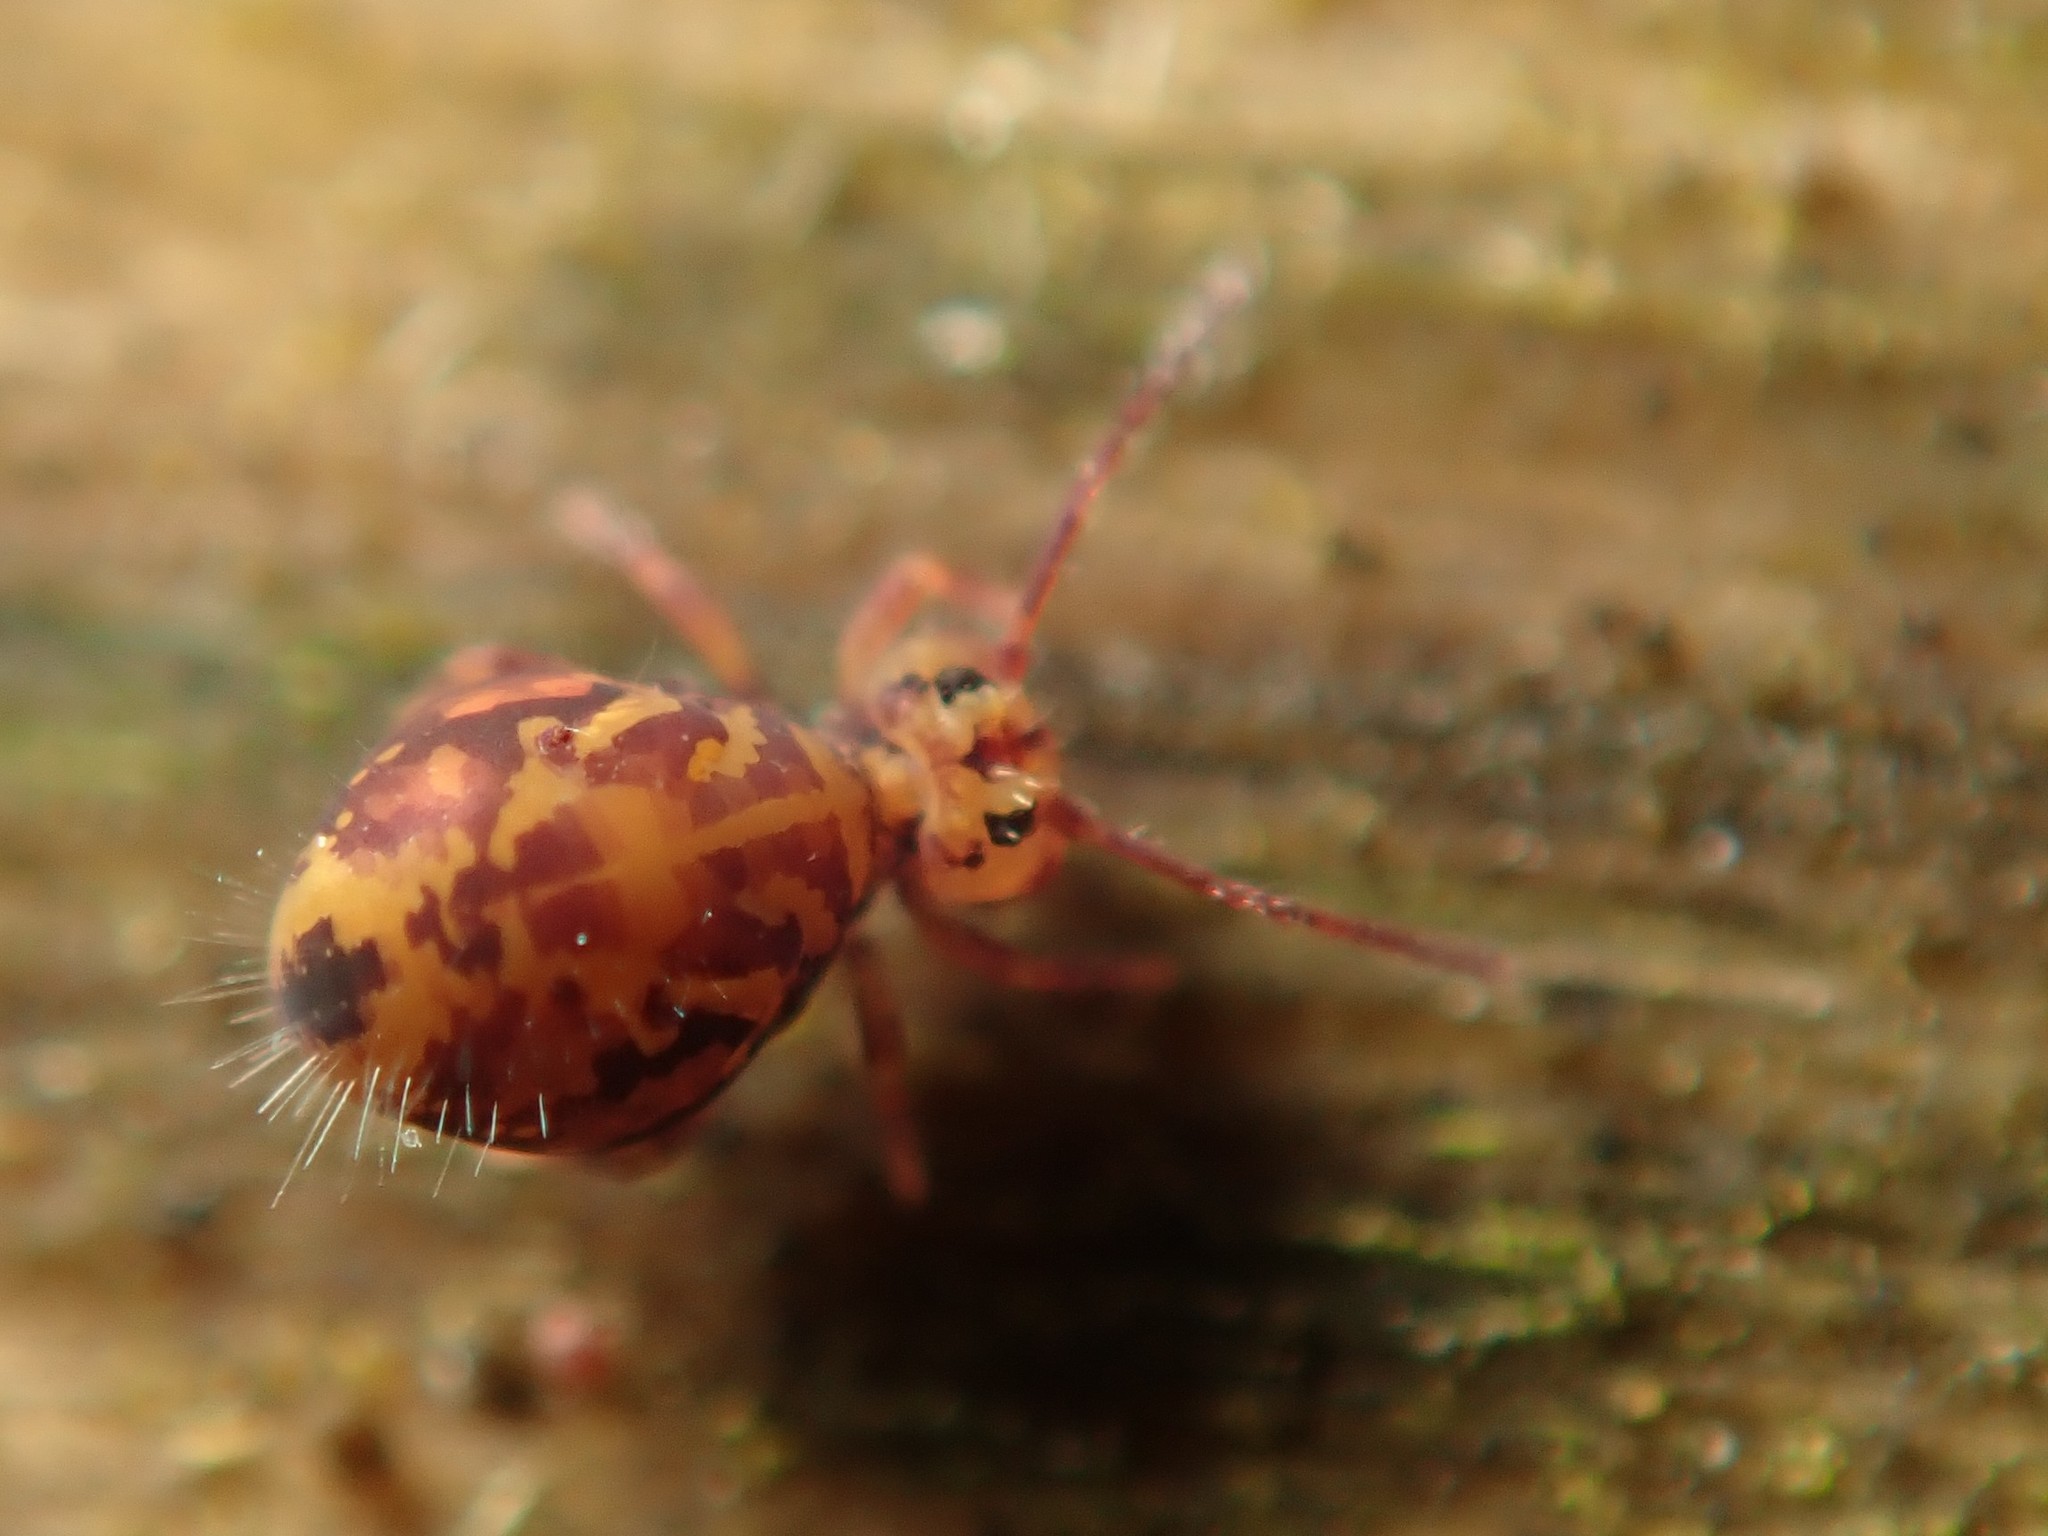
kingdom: Animalia
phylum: Arthropoda
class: Collembola
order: Symphypleona
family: Dicyrtomidae
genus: Dicyrtomina
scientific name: Dicyrtomina ornata
